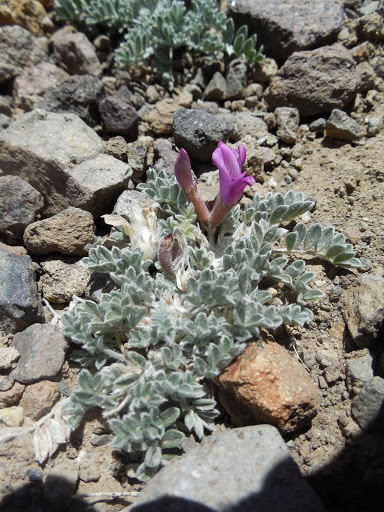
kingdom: Plantae
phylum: Tracheophyta
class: Magnoliopsida
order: Fabales
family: Fabaceae
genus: Astragalus
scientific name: Astragalus purshii
